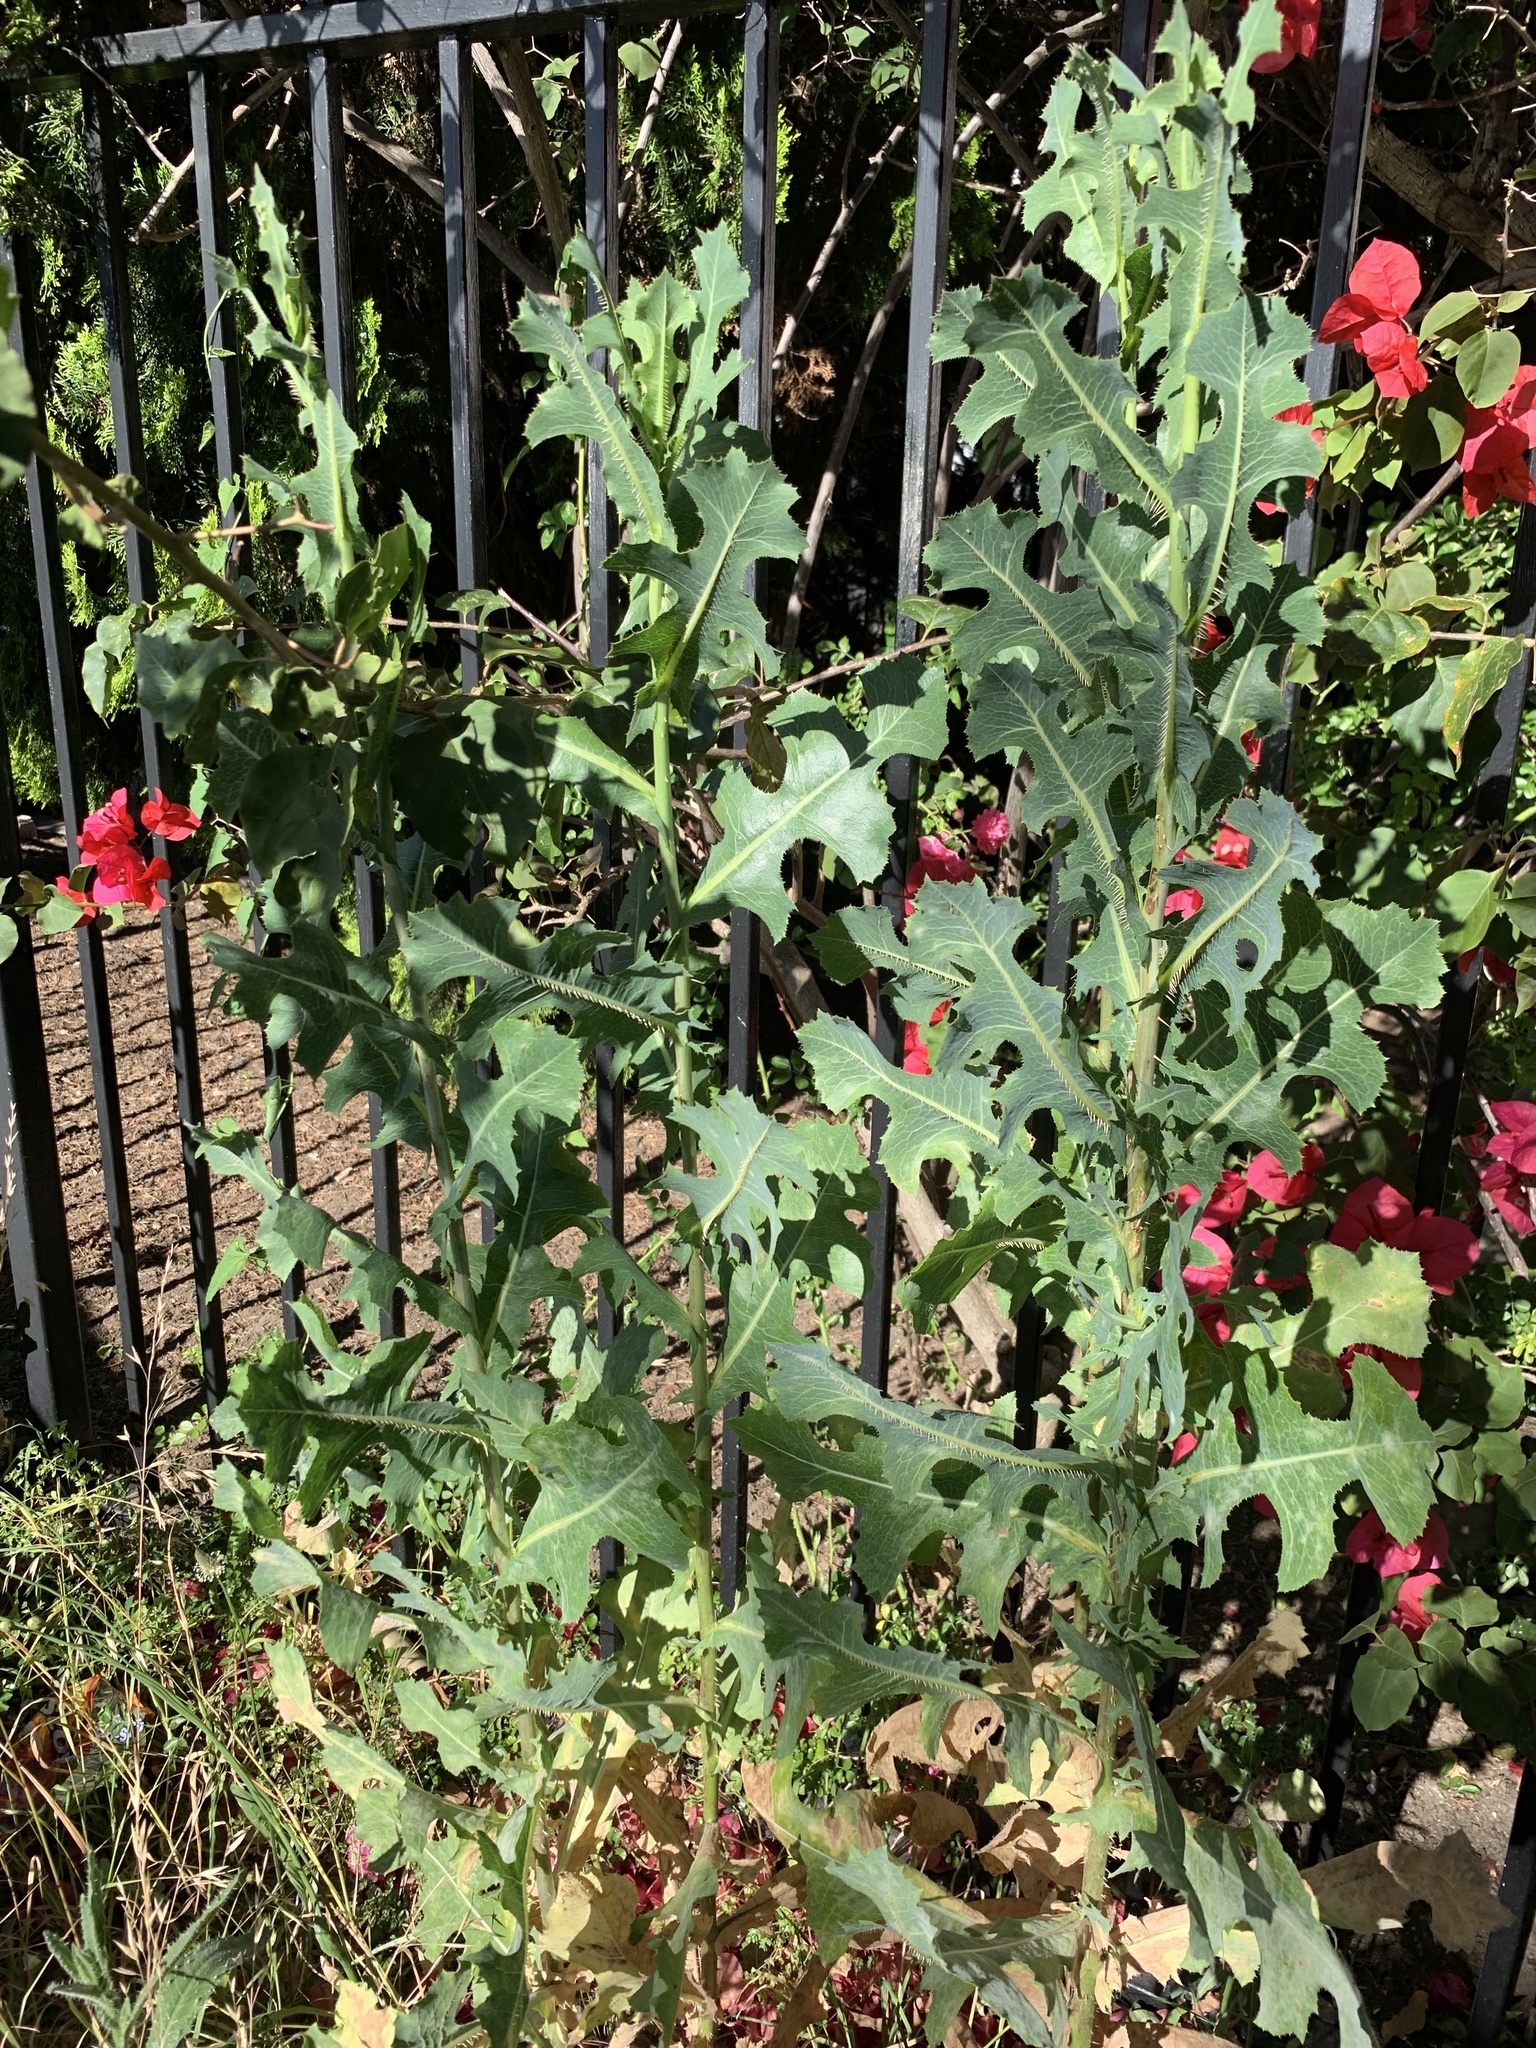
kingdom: Plantae
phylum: Tracheophyta
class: Magnoliopsida
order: Asterales
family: Asteraceae
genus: Lactuca
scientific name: Lactuca serriola
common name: Prickly lettuce
